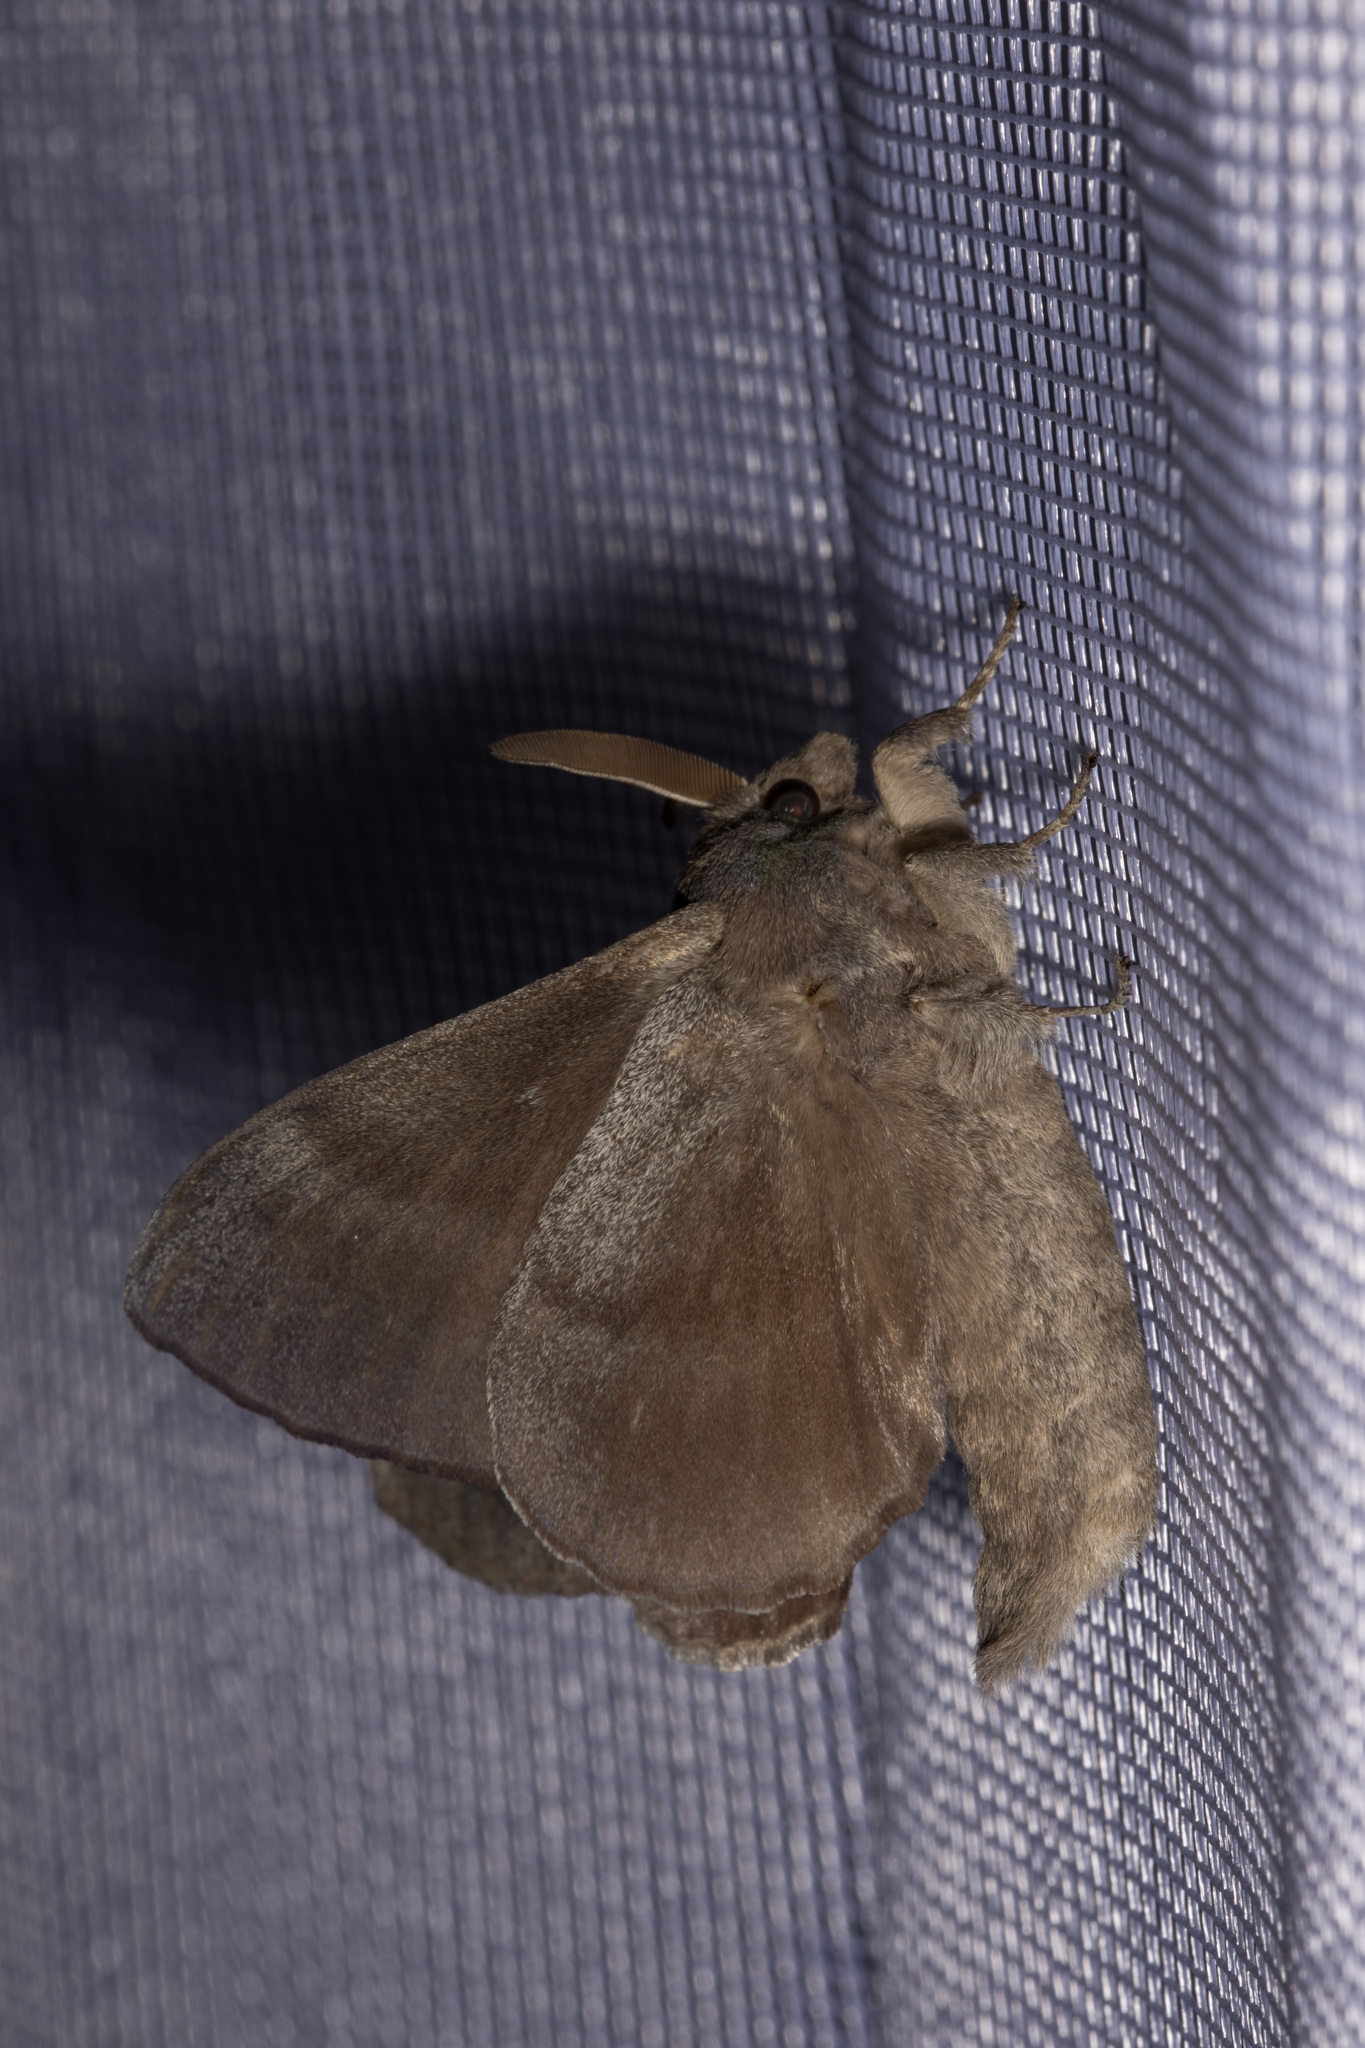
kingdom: Animalia
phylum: Arthropoda
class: Insecta
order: Lepidoptera
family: Lasiocampidae
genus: Dendrolimus
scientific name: Dendrolimus pini
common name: Pine-tree lappet
